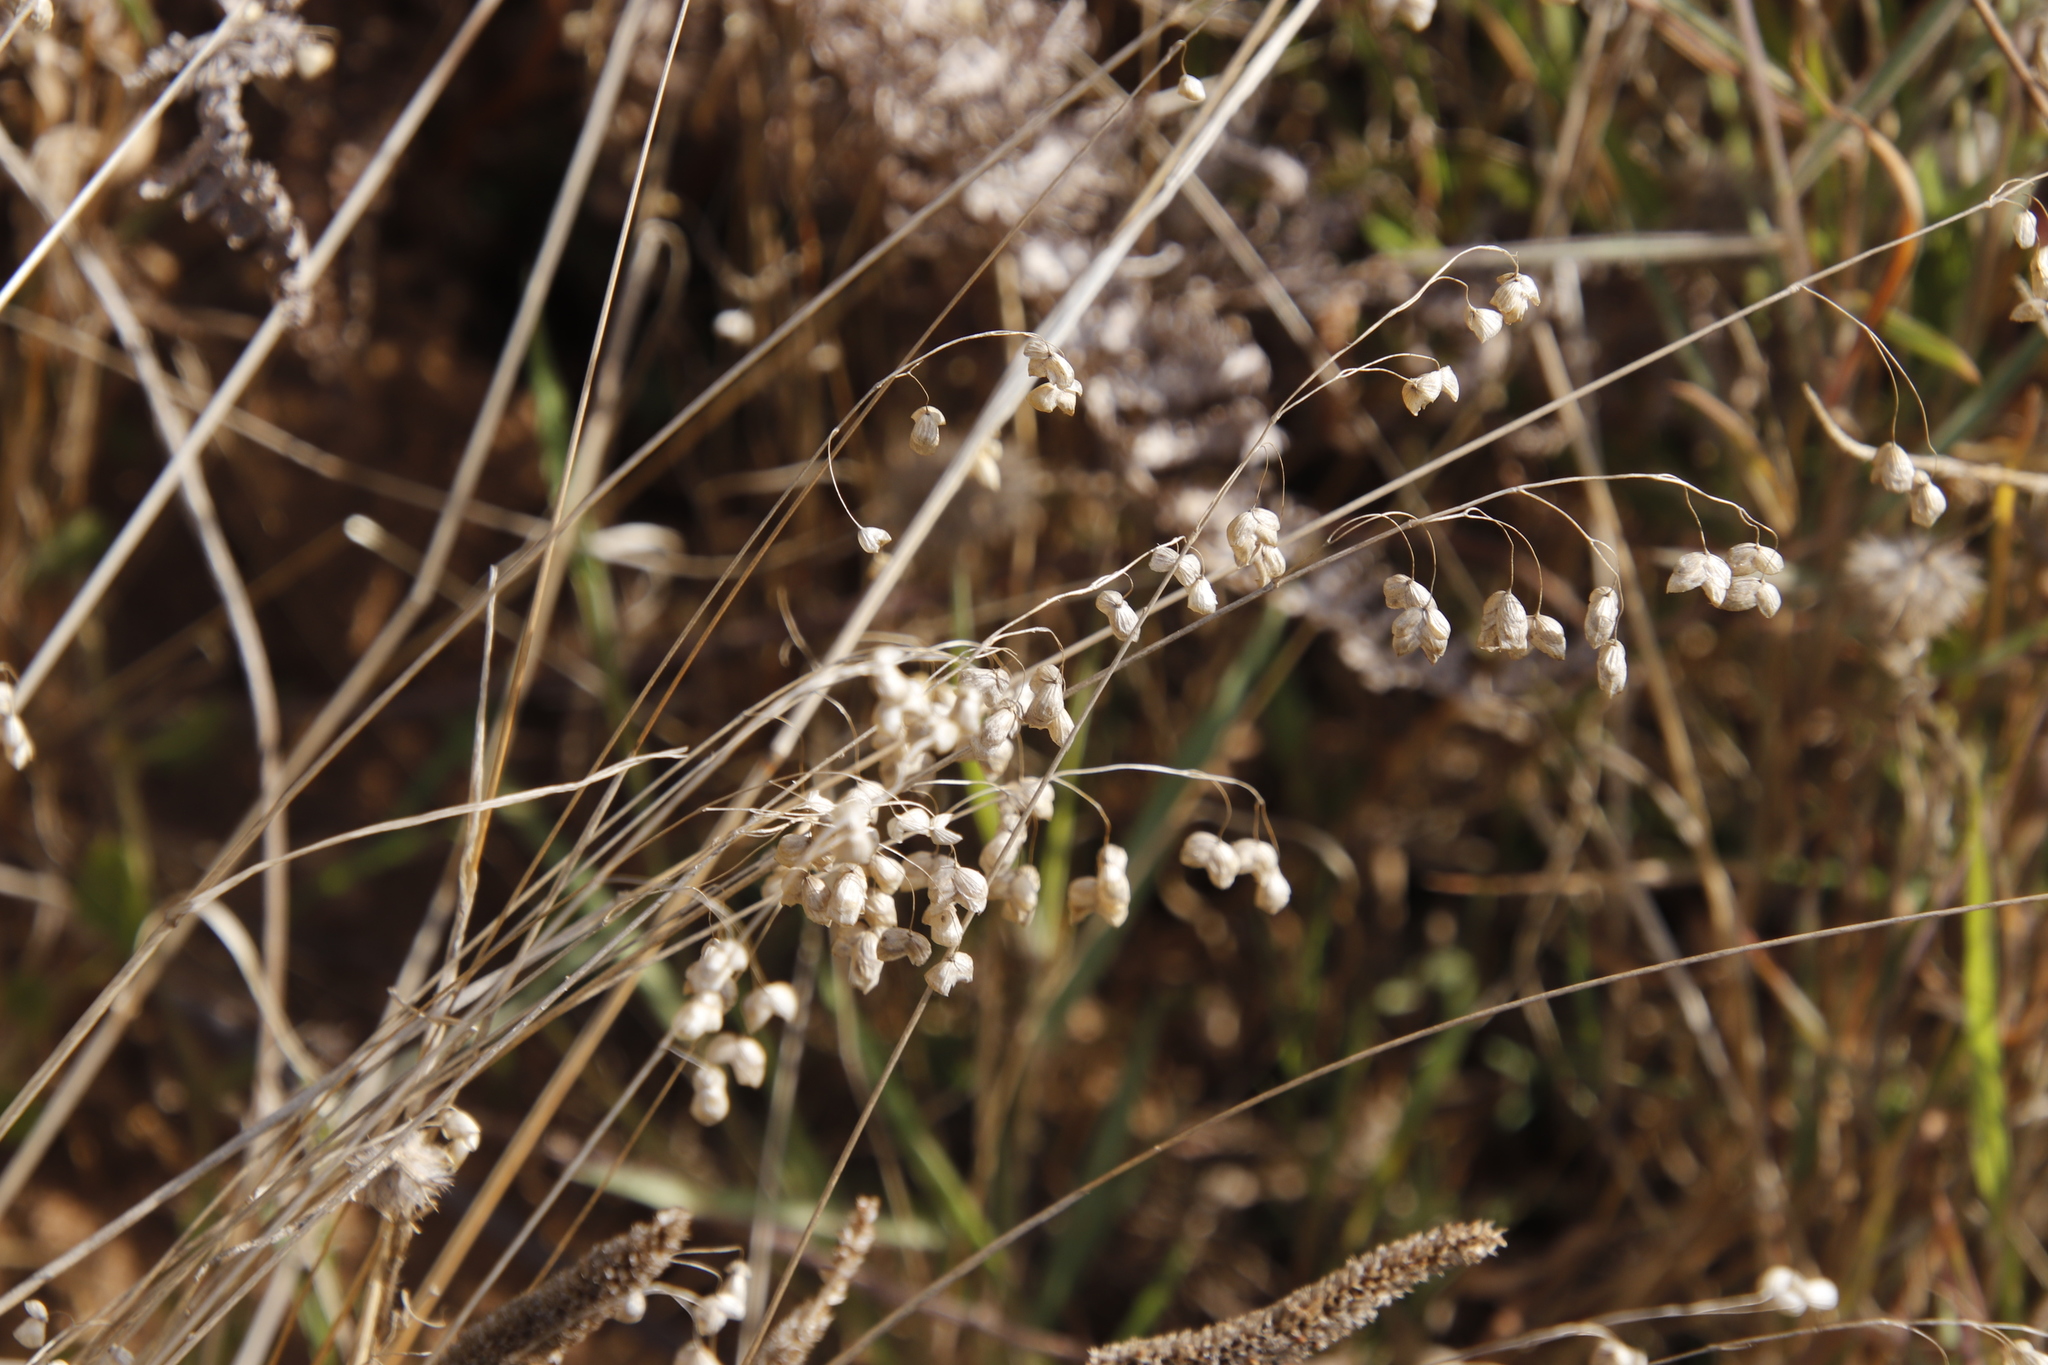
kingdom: Plantae
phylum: Tracheophyta
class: Liliopsida
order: Poales
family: Poaceae
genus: Briza
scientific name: Briza maxima
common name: Big quakinggrass
